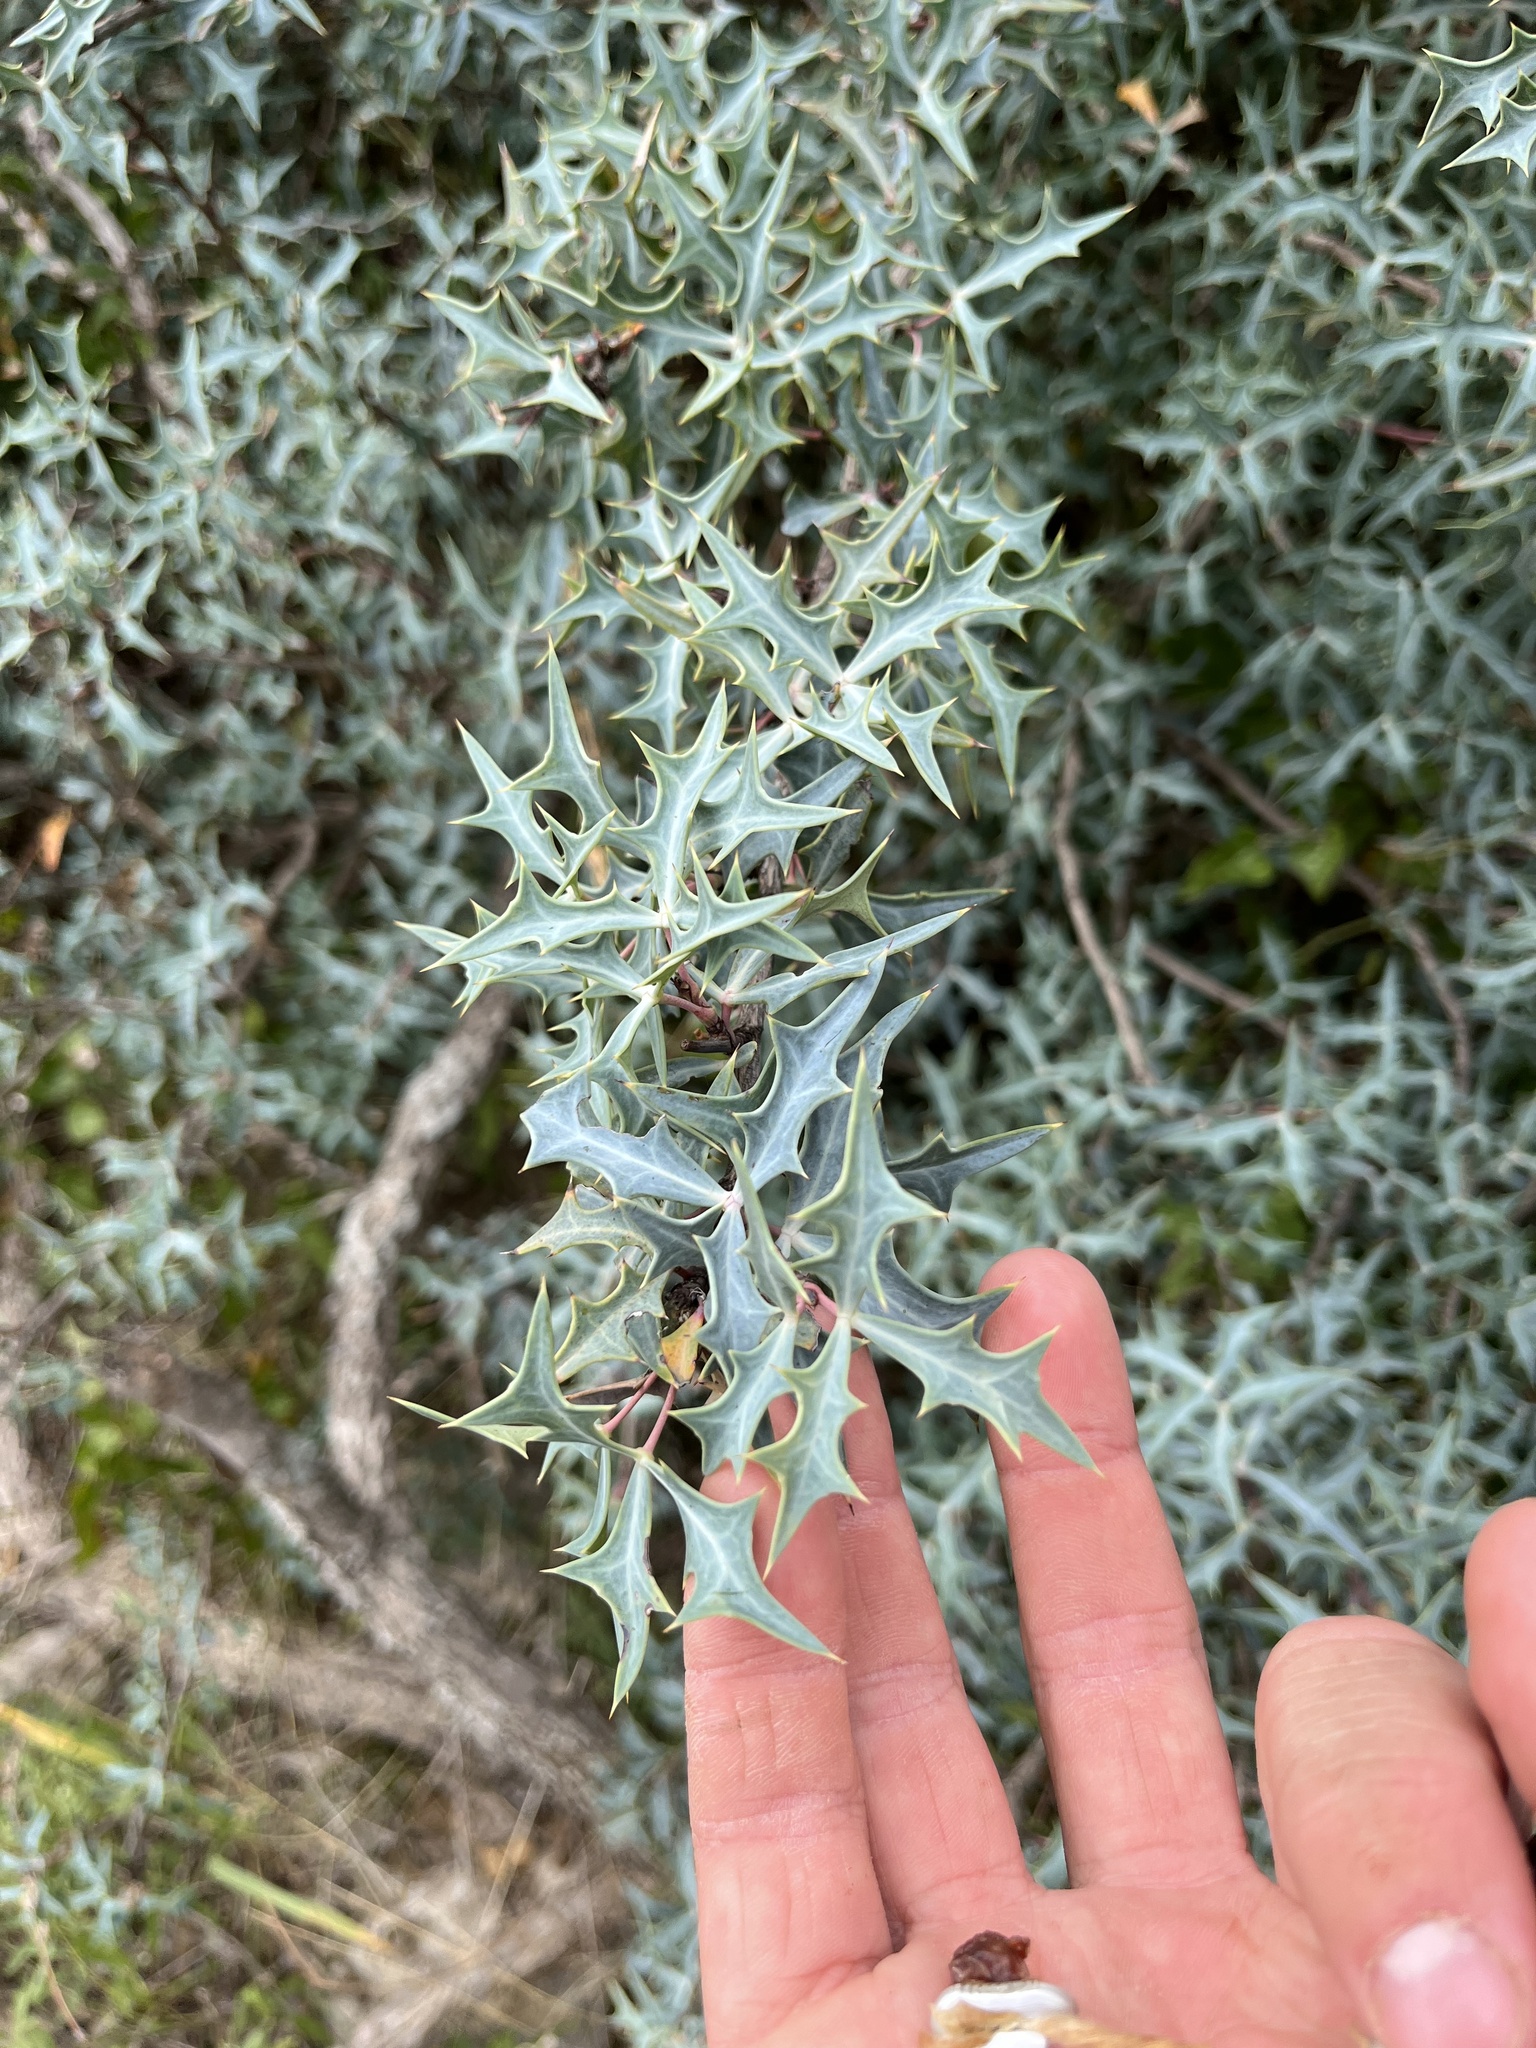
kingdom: Plantae
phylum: Tracheophyta
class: Magnoliopsida
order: Ranunculales
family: Berberidaceae
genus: Alloberberis
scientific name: Alloberberis trifoliolata
